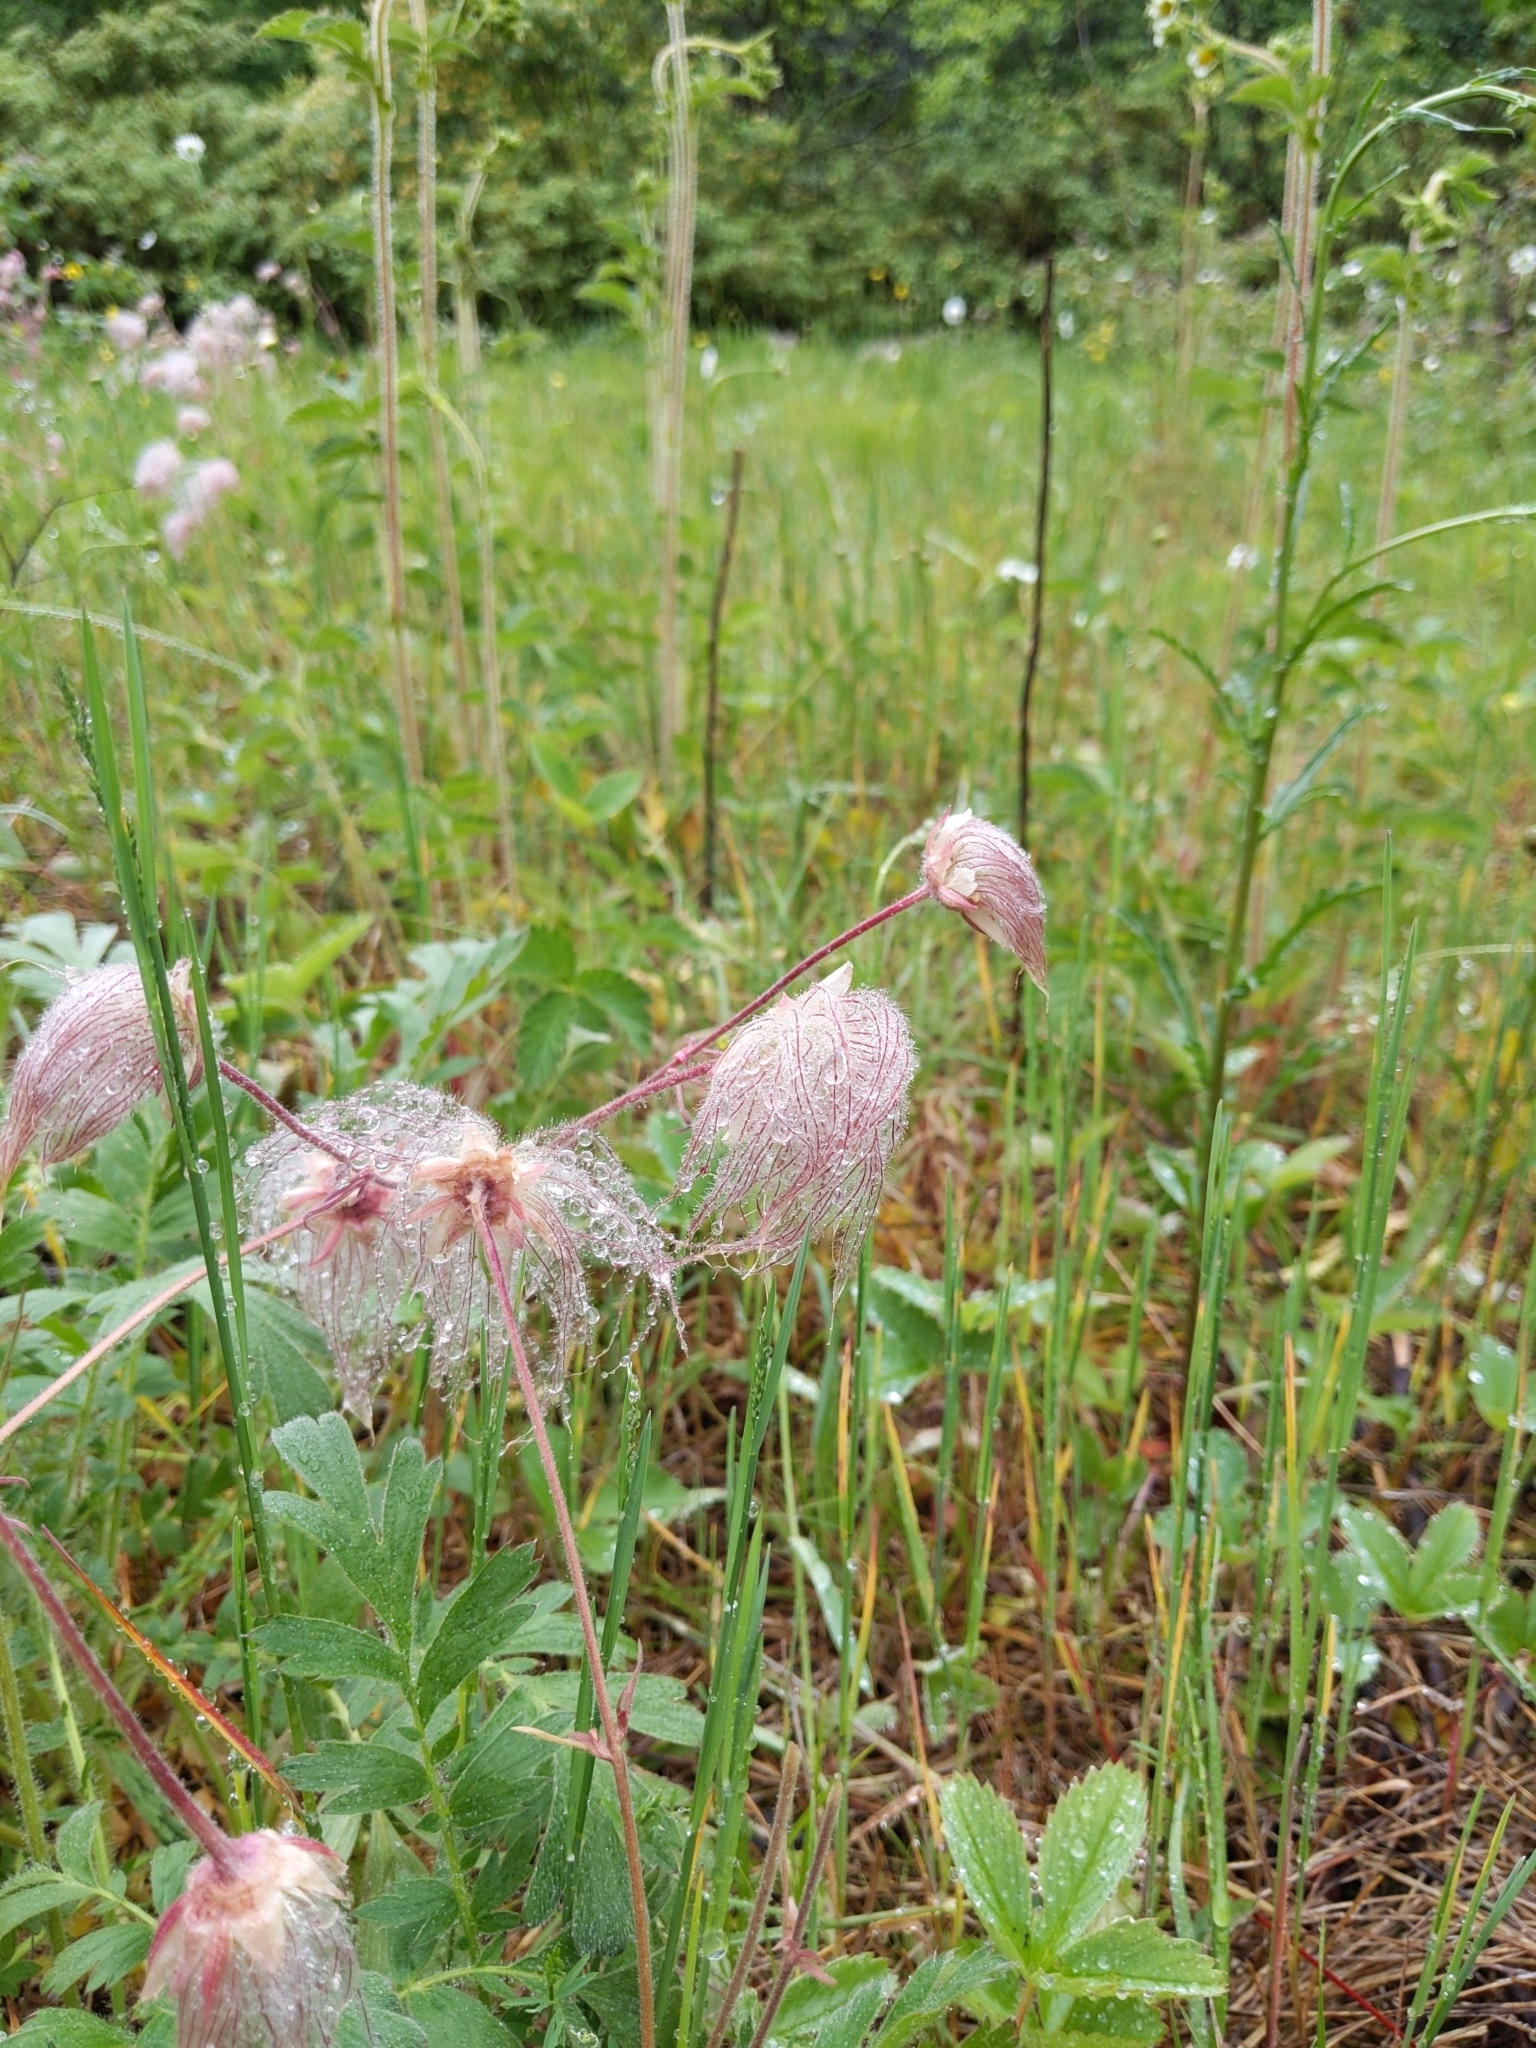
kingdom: Plantae
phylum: Tracheophyta
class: Magnoliopsida
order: Rosales
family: Rosaceae
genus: Geum
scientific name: Geum triflorum
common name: Old man's whiskers
